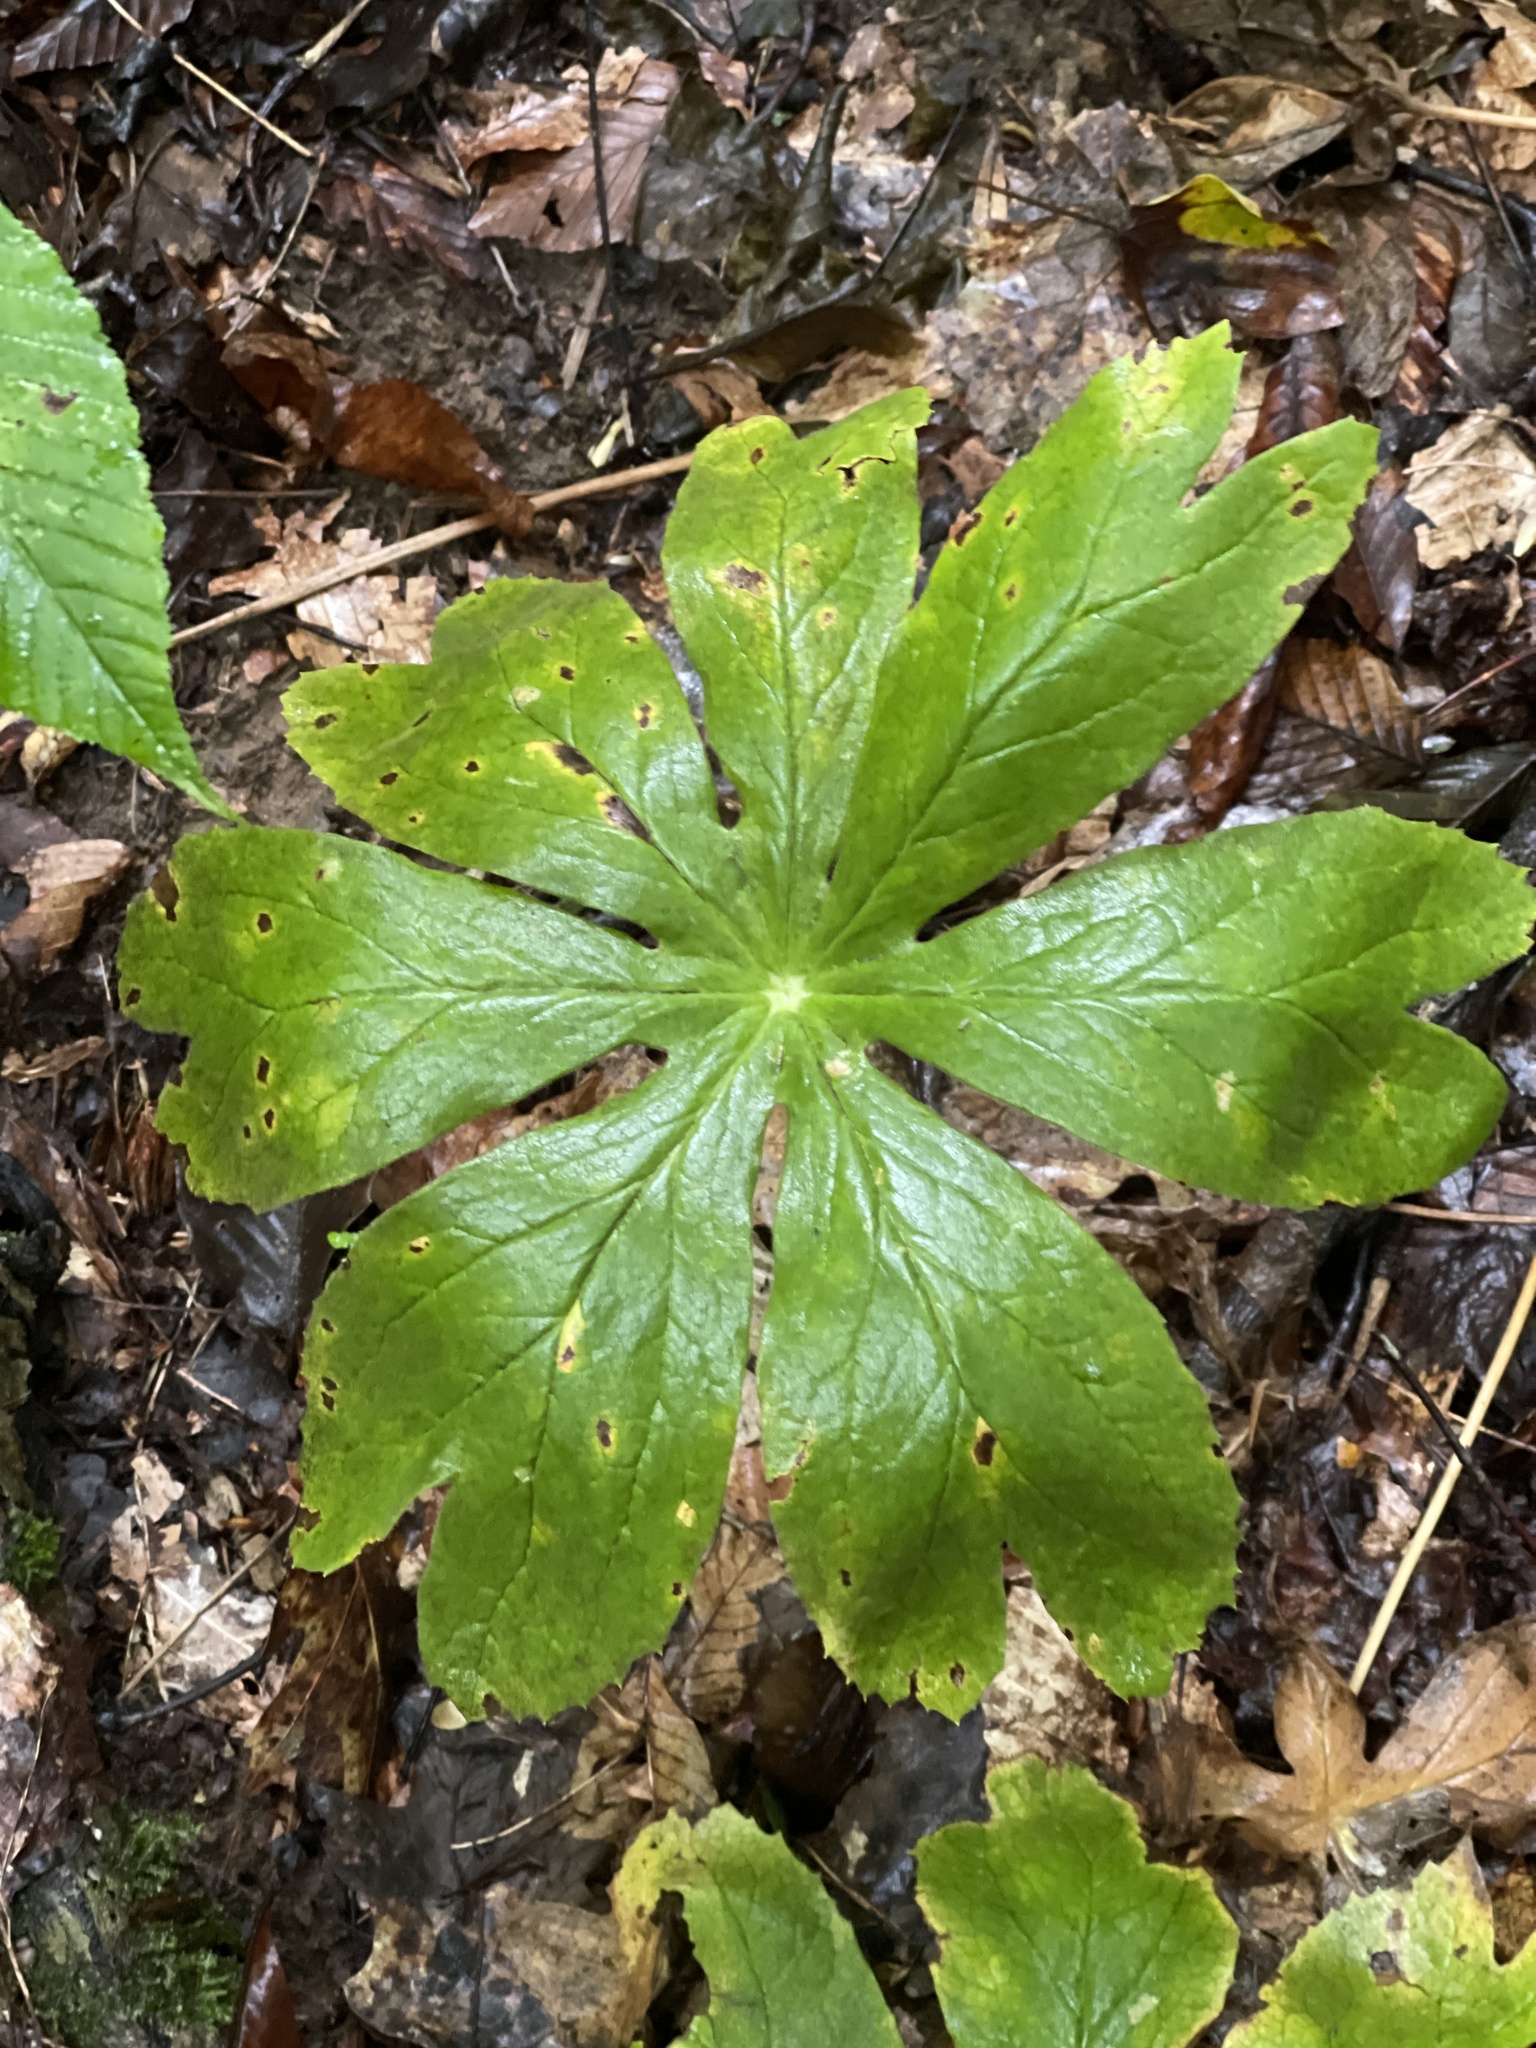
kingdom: Plantae
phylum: Tracheophyta
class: Magnoliopsida
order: Ranunculales
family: Berberidaceae
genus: Podophyllum
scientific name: Podophyllum peltatum
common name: Wild mandrake
